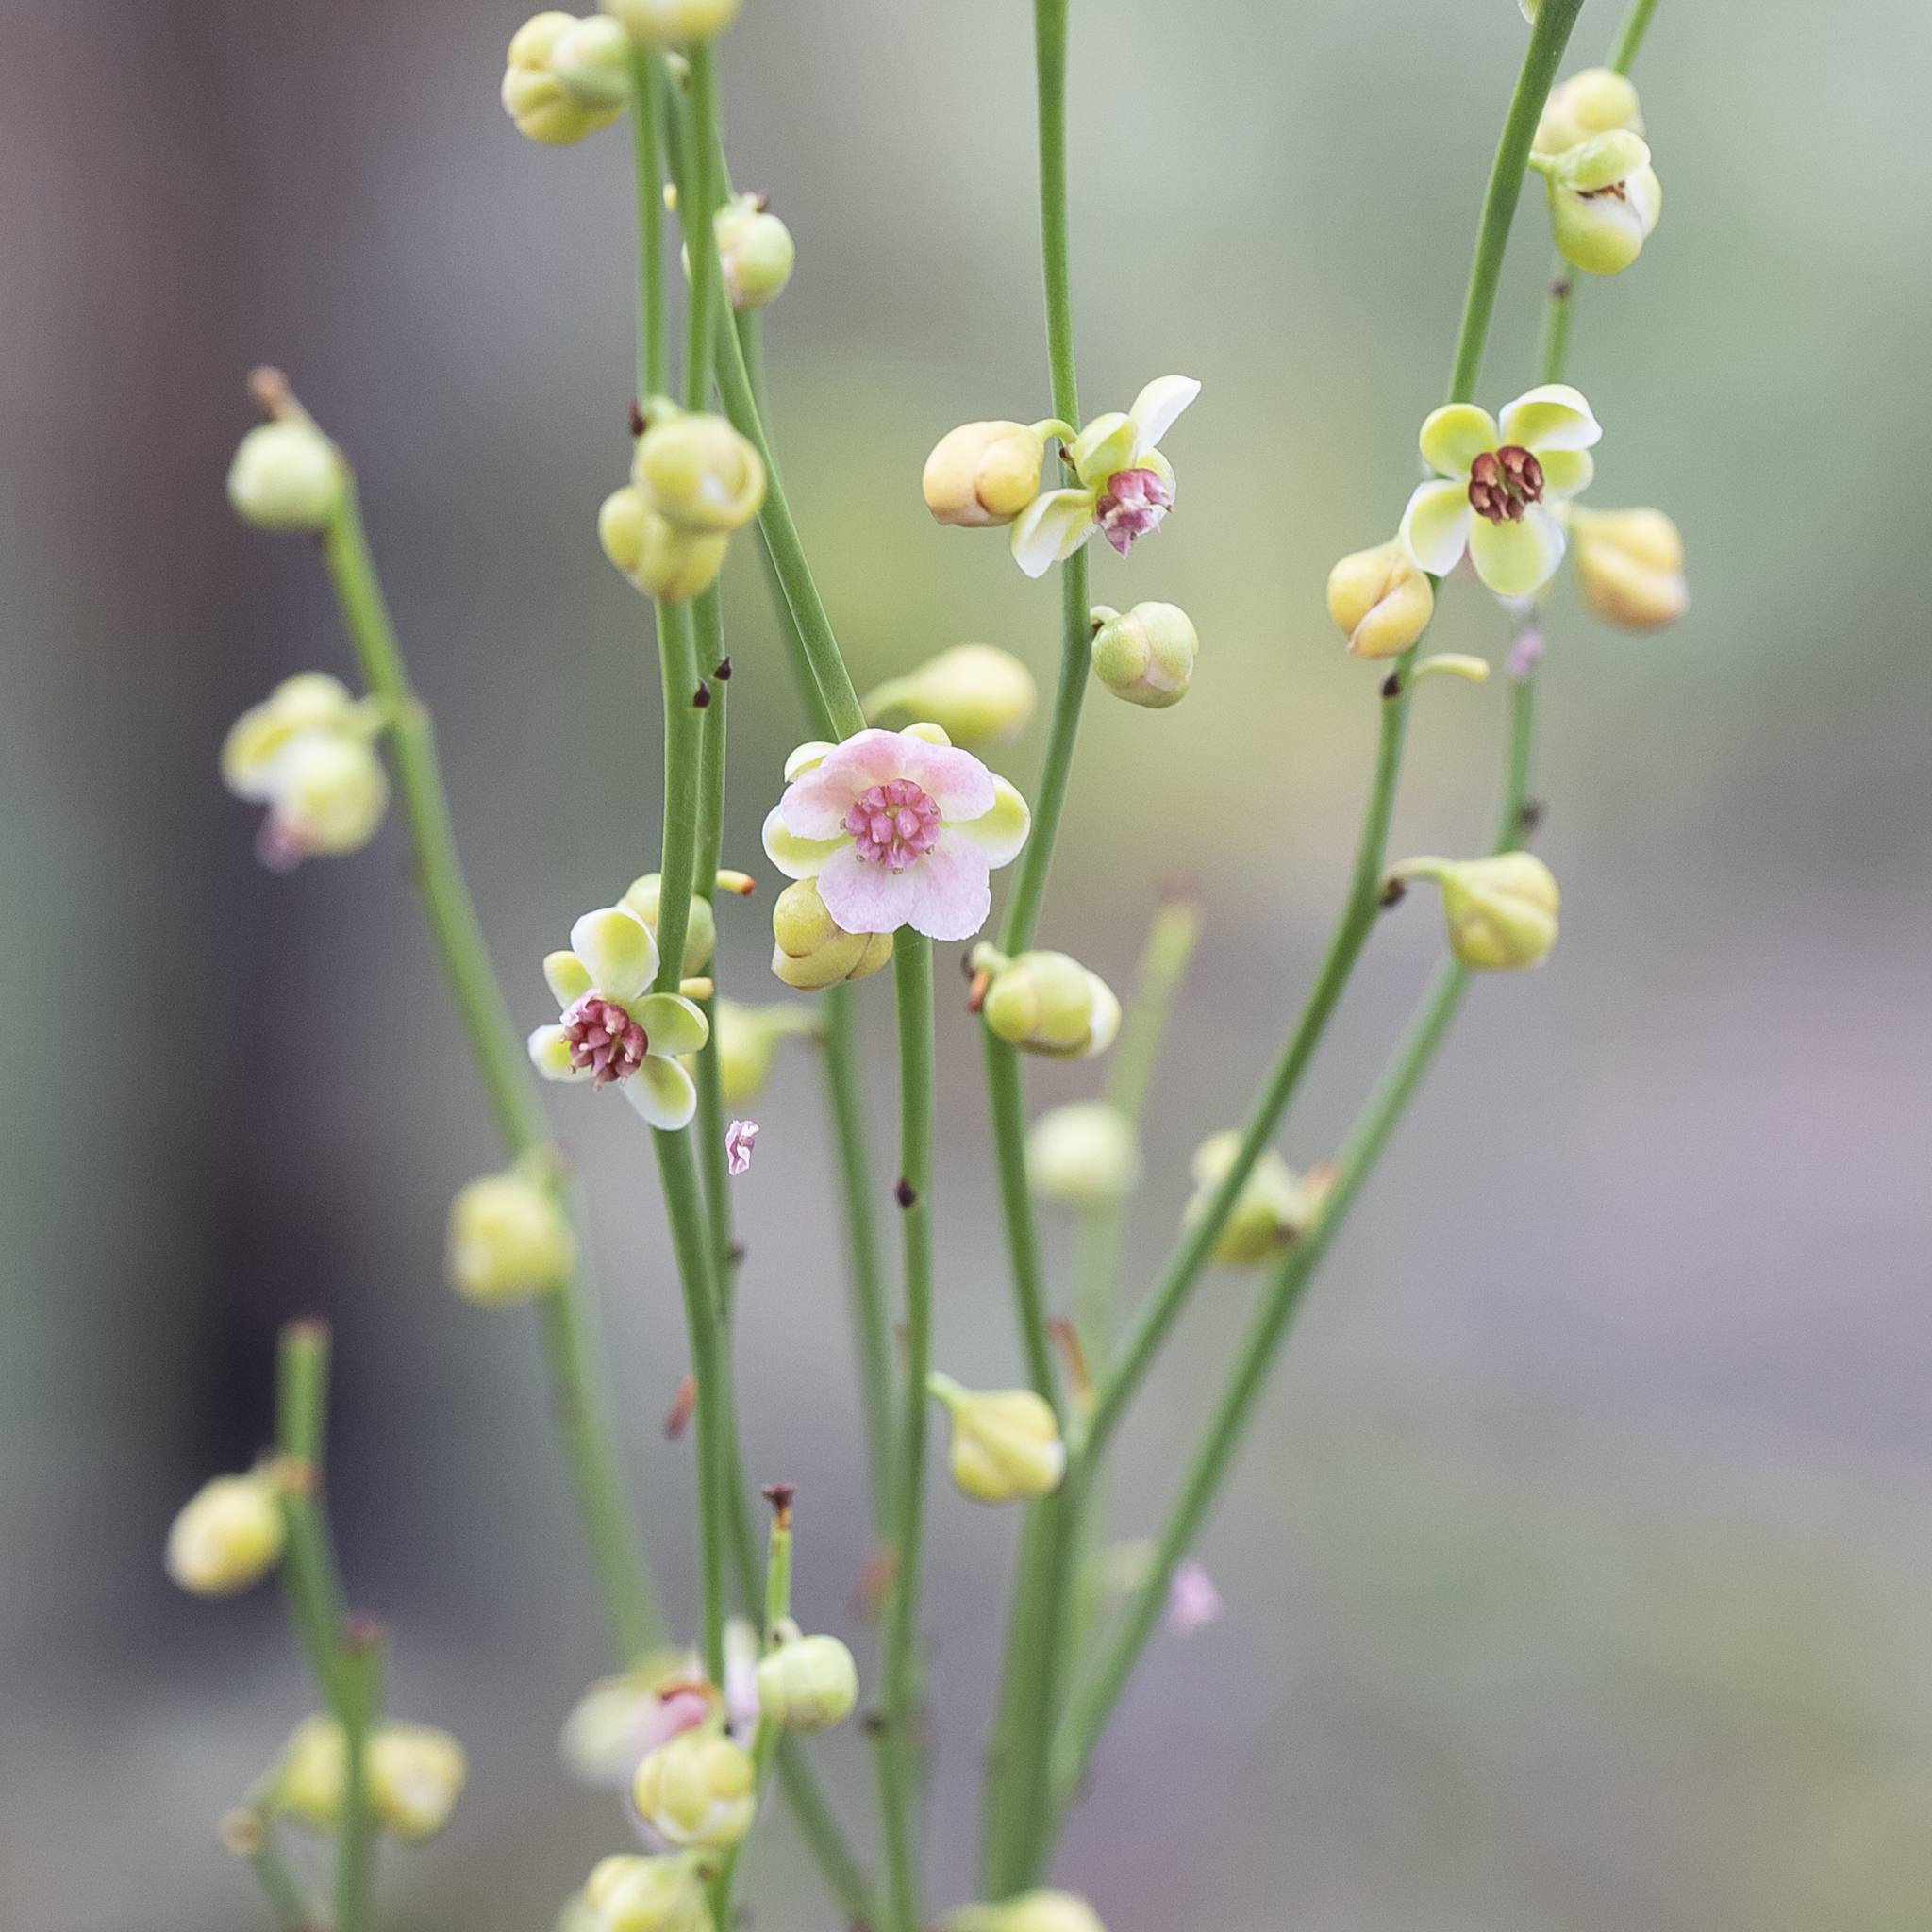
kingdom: Plantae
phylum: Tracheophyta
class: Magnoliopsida
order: Dilleniales
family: Dilleniaceae
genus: Hibbertia
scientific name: Hibbertia juncea
